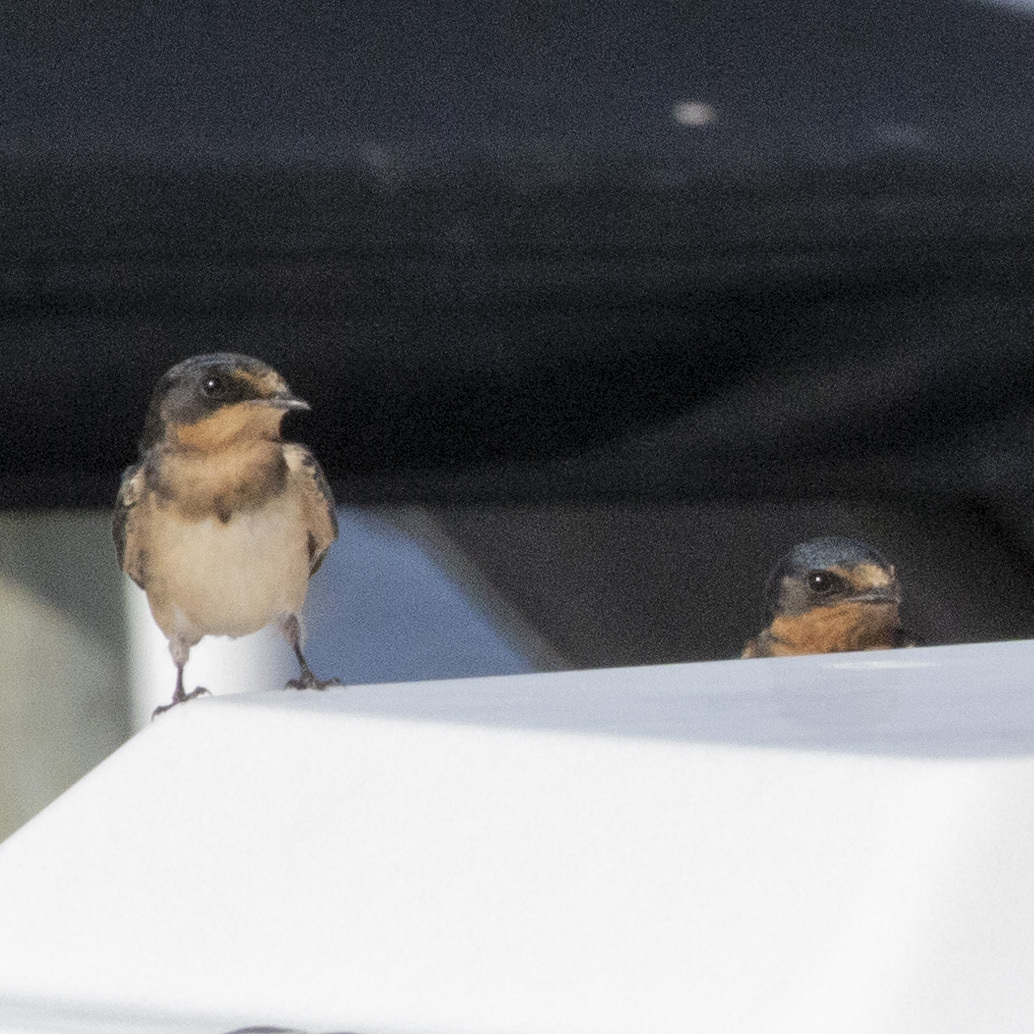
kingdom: Animalia
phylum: Chordata
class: Aves
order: Passeriformes
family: Hirundinidae
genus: Hirundo
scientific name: Hirundo rustica
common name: Barn swallow
